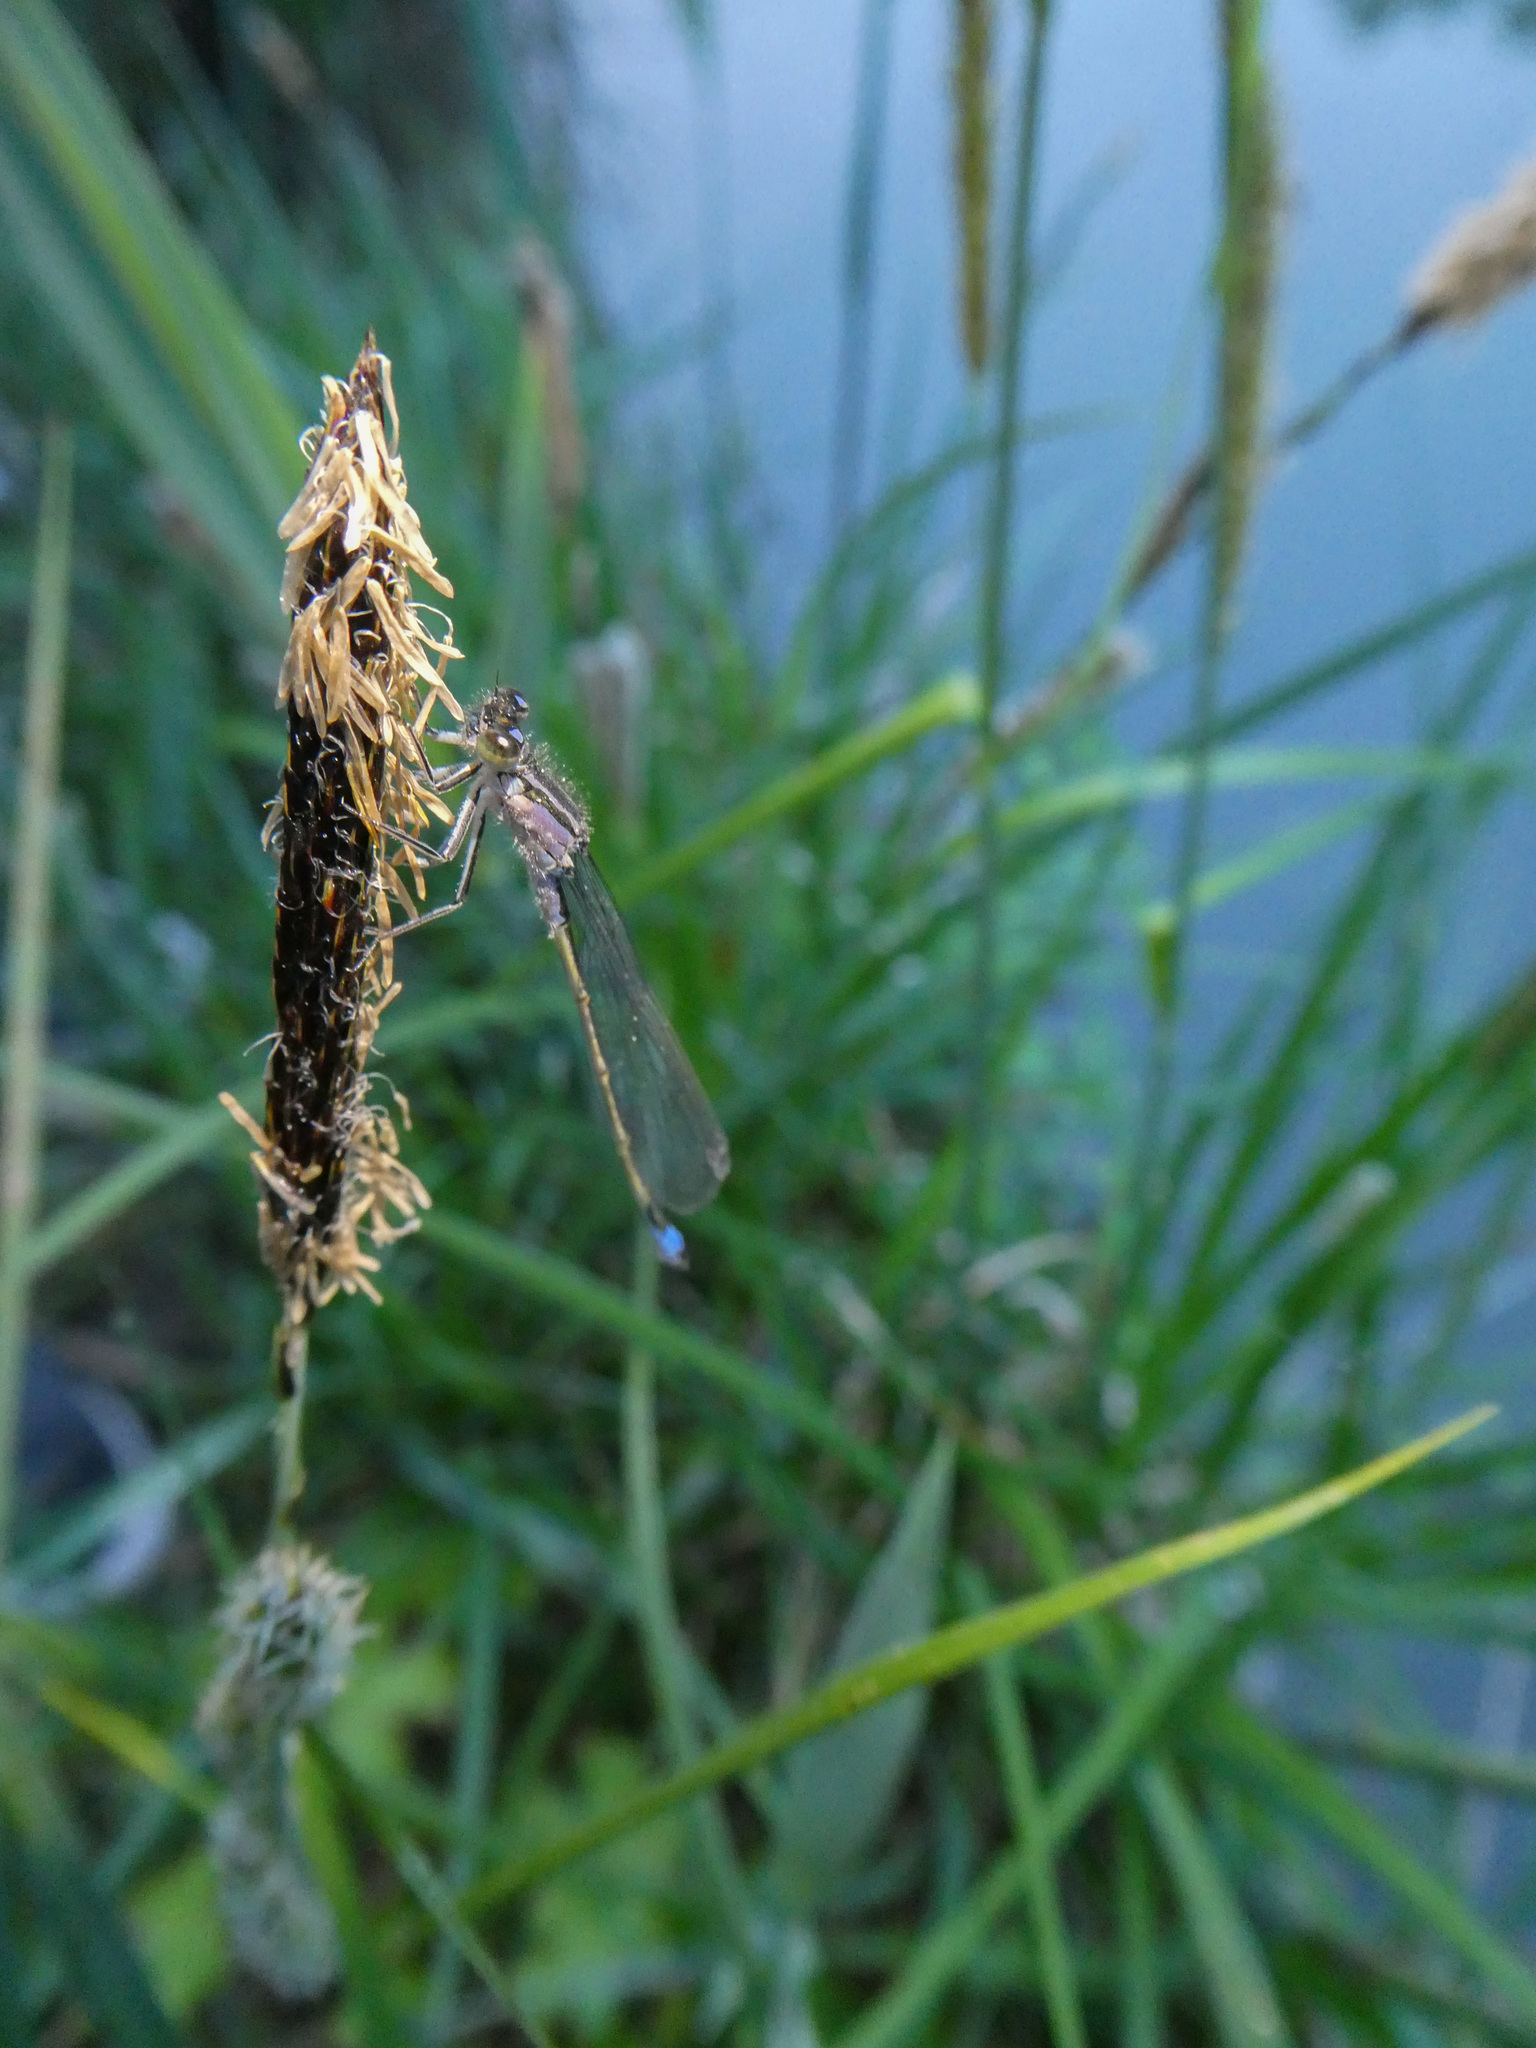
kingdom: Animalia
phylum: Arthropoda
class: Insecta
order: Odonata
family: Coenagrionidae
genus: Ischnura
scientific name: Ischnura elegans
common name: Blue-tailed damselfly
